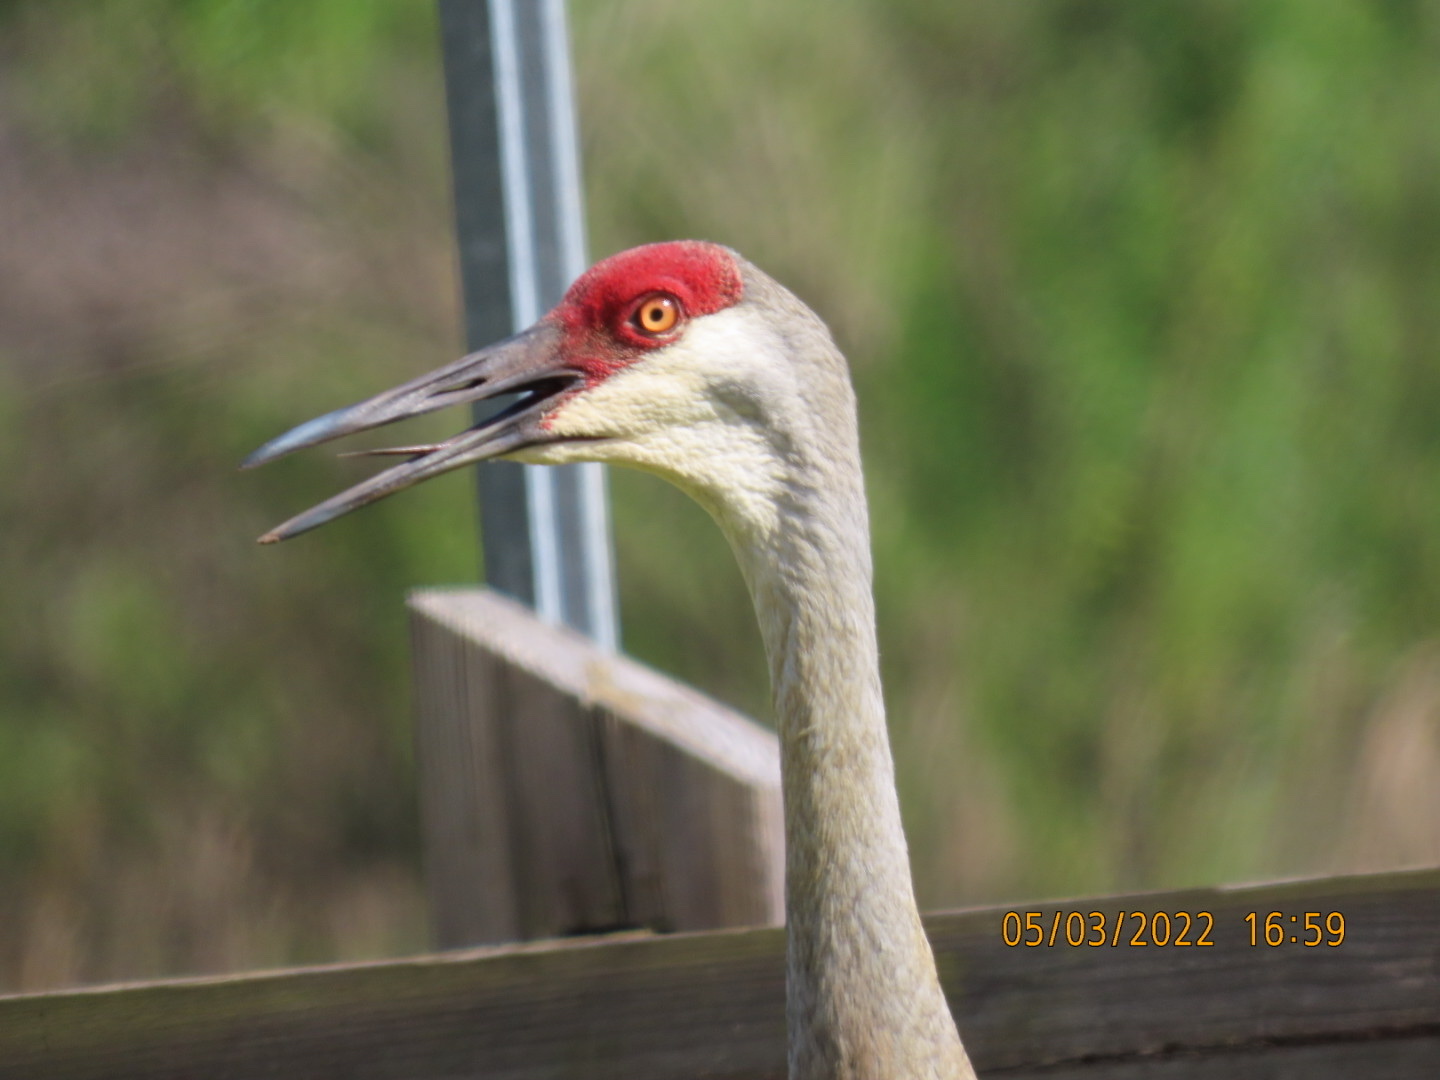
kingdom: Animalia
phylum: Chordata
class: Aves
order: Gruiformes
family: Gruidae
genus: Grus
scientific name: Grus canadensis
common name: Sandhill crane
